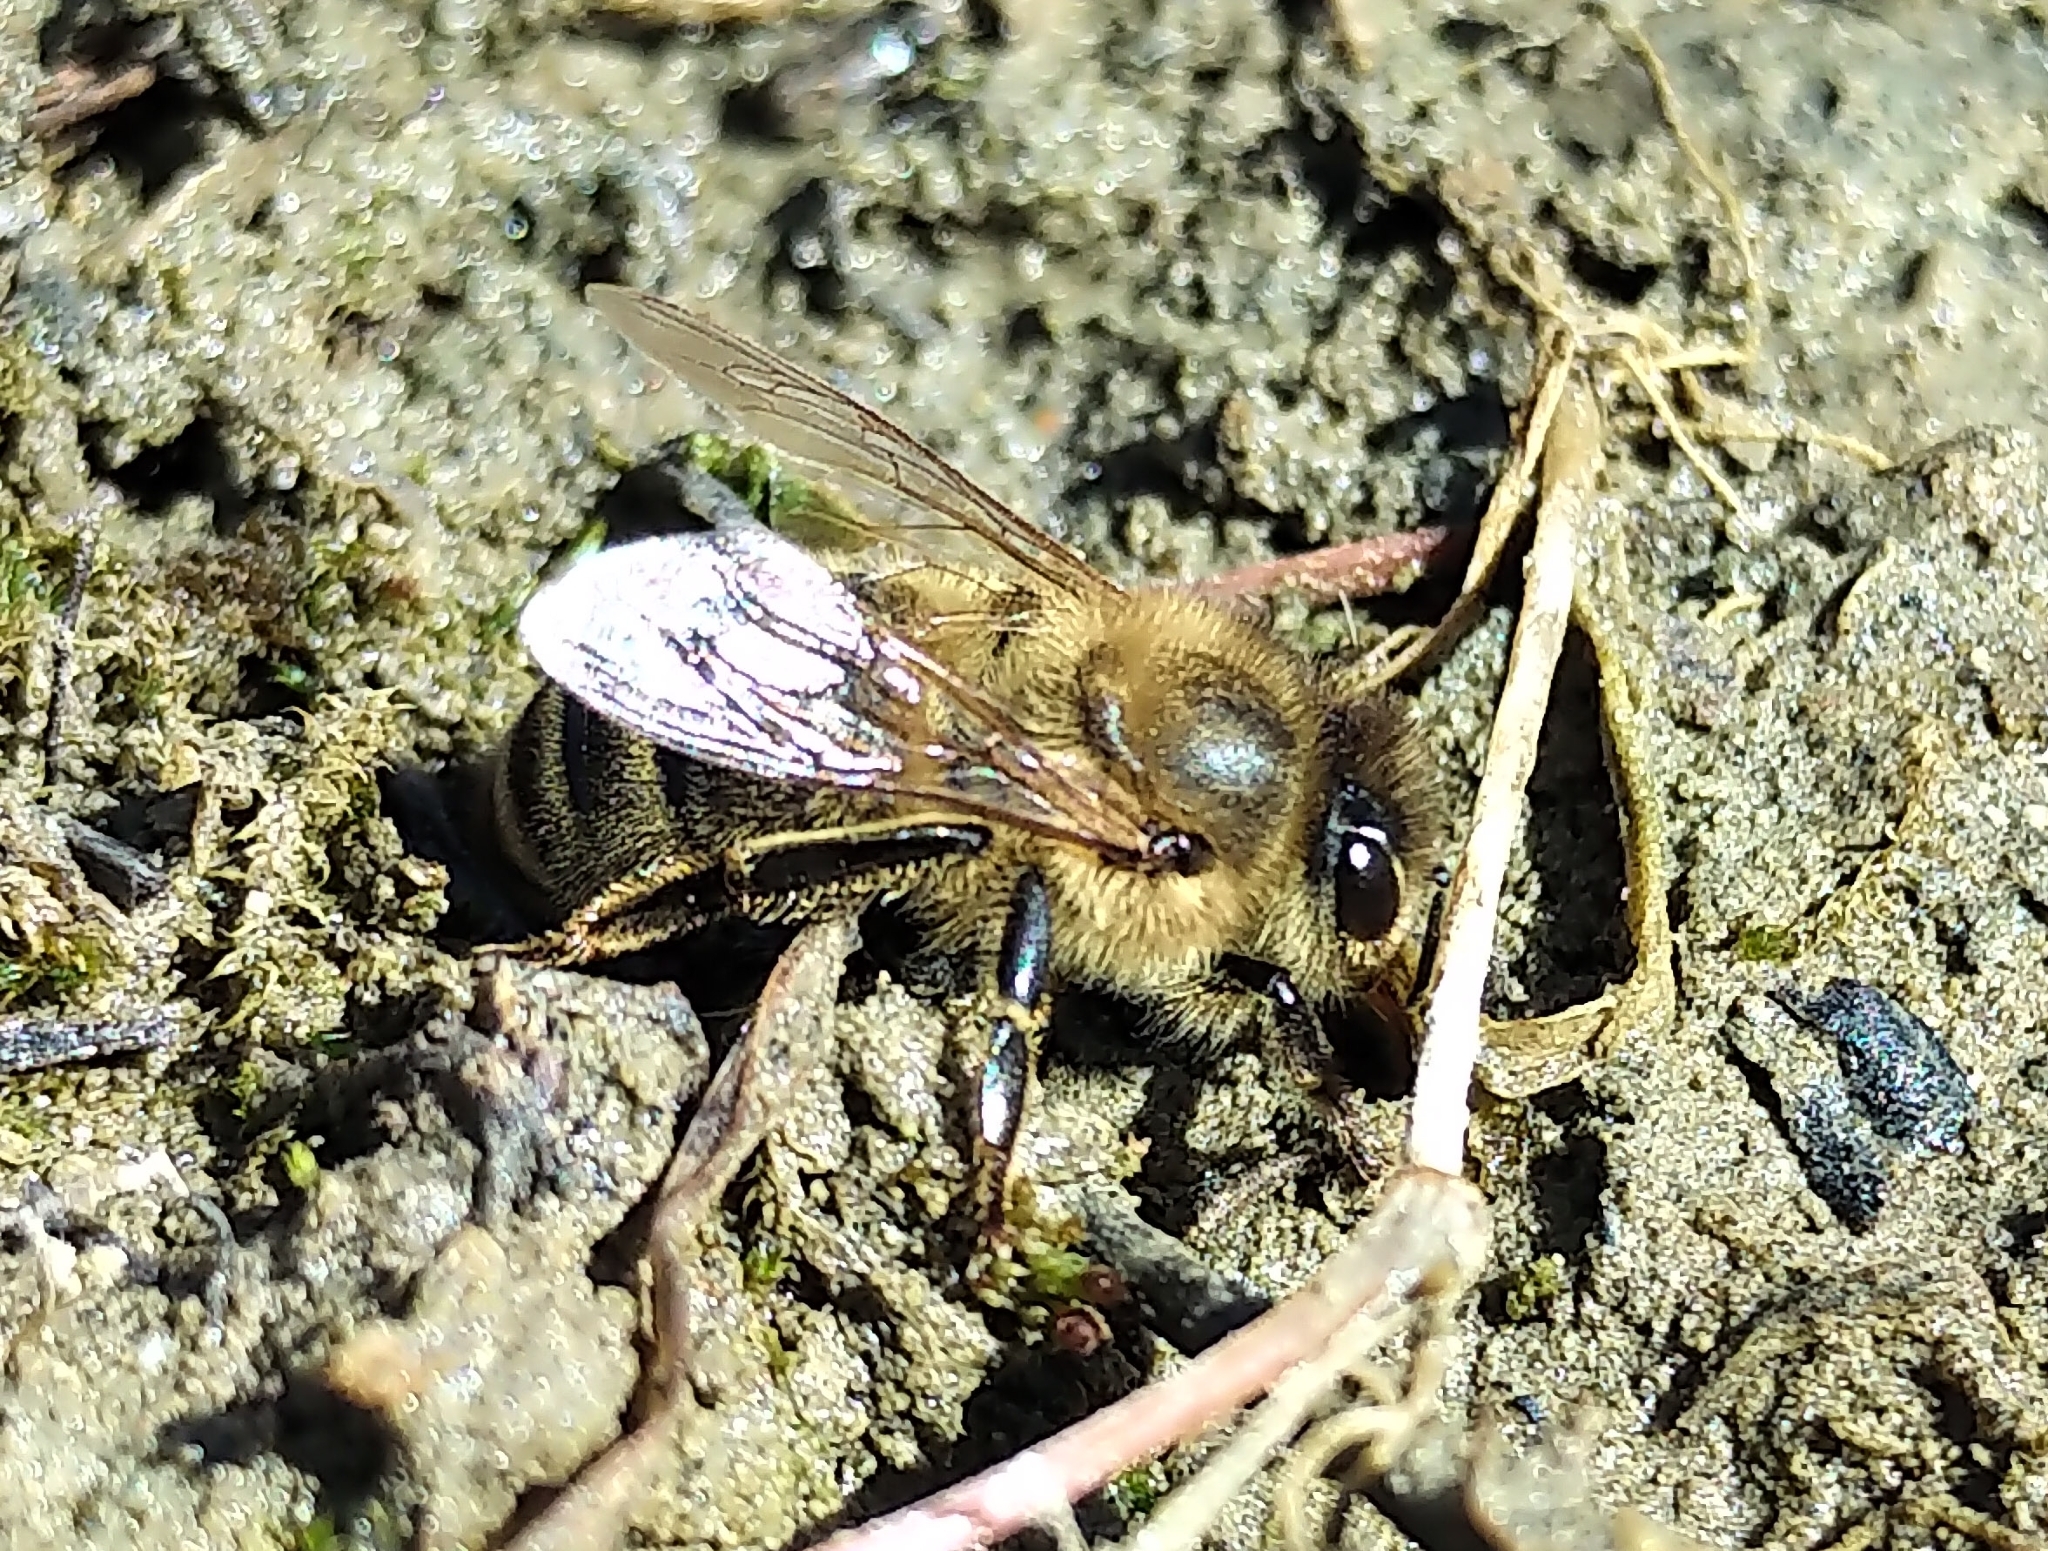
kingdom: Animalia
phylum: Arthropoda
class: Insecta
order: Hymenoptera
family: Apidae
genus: Apis
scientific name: Apis mellifera
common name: Honey bee
